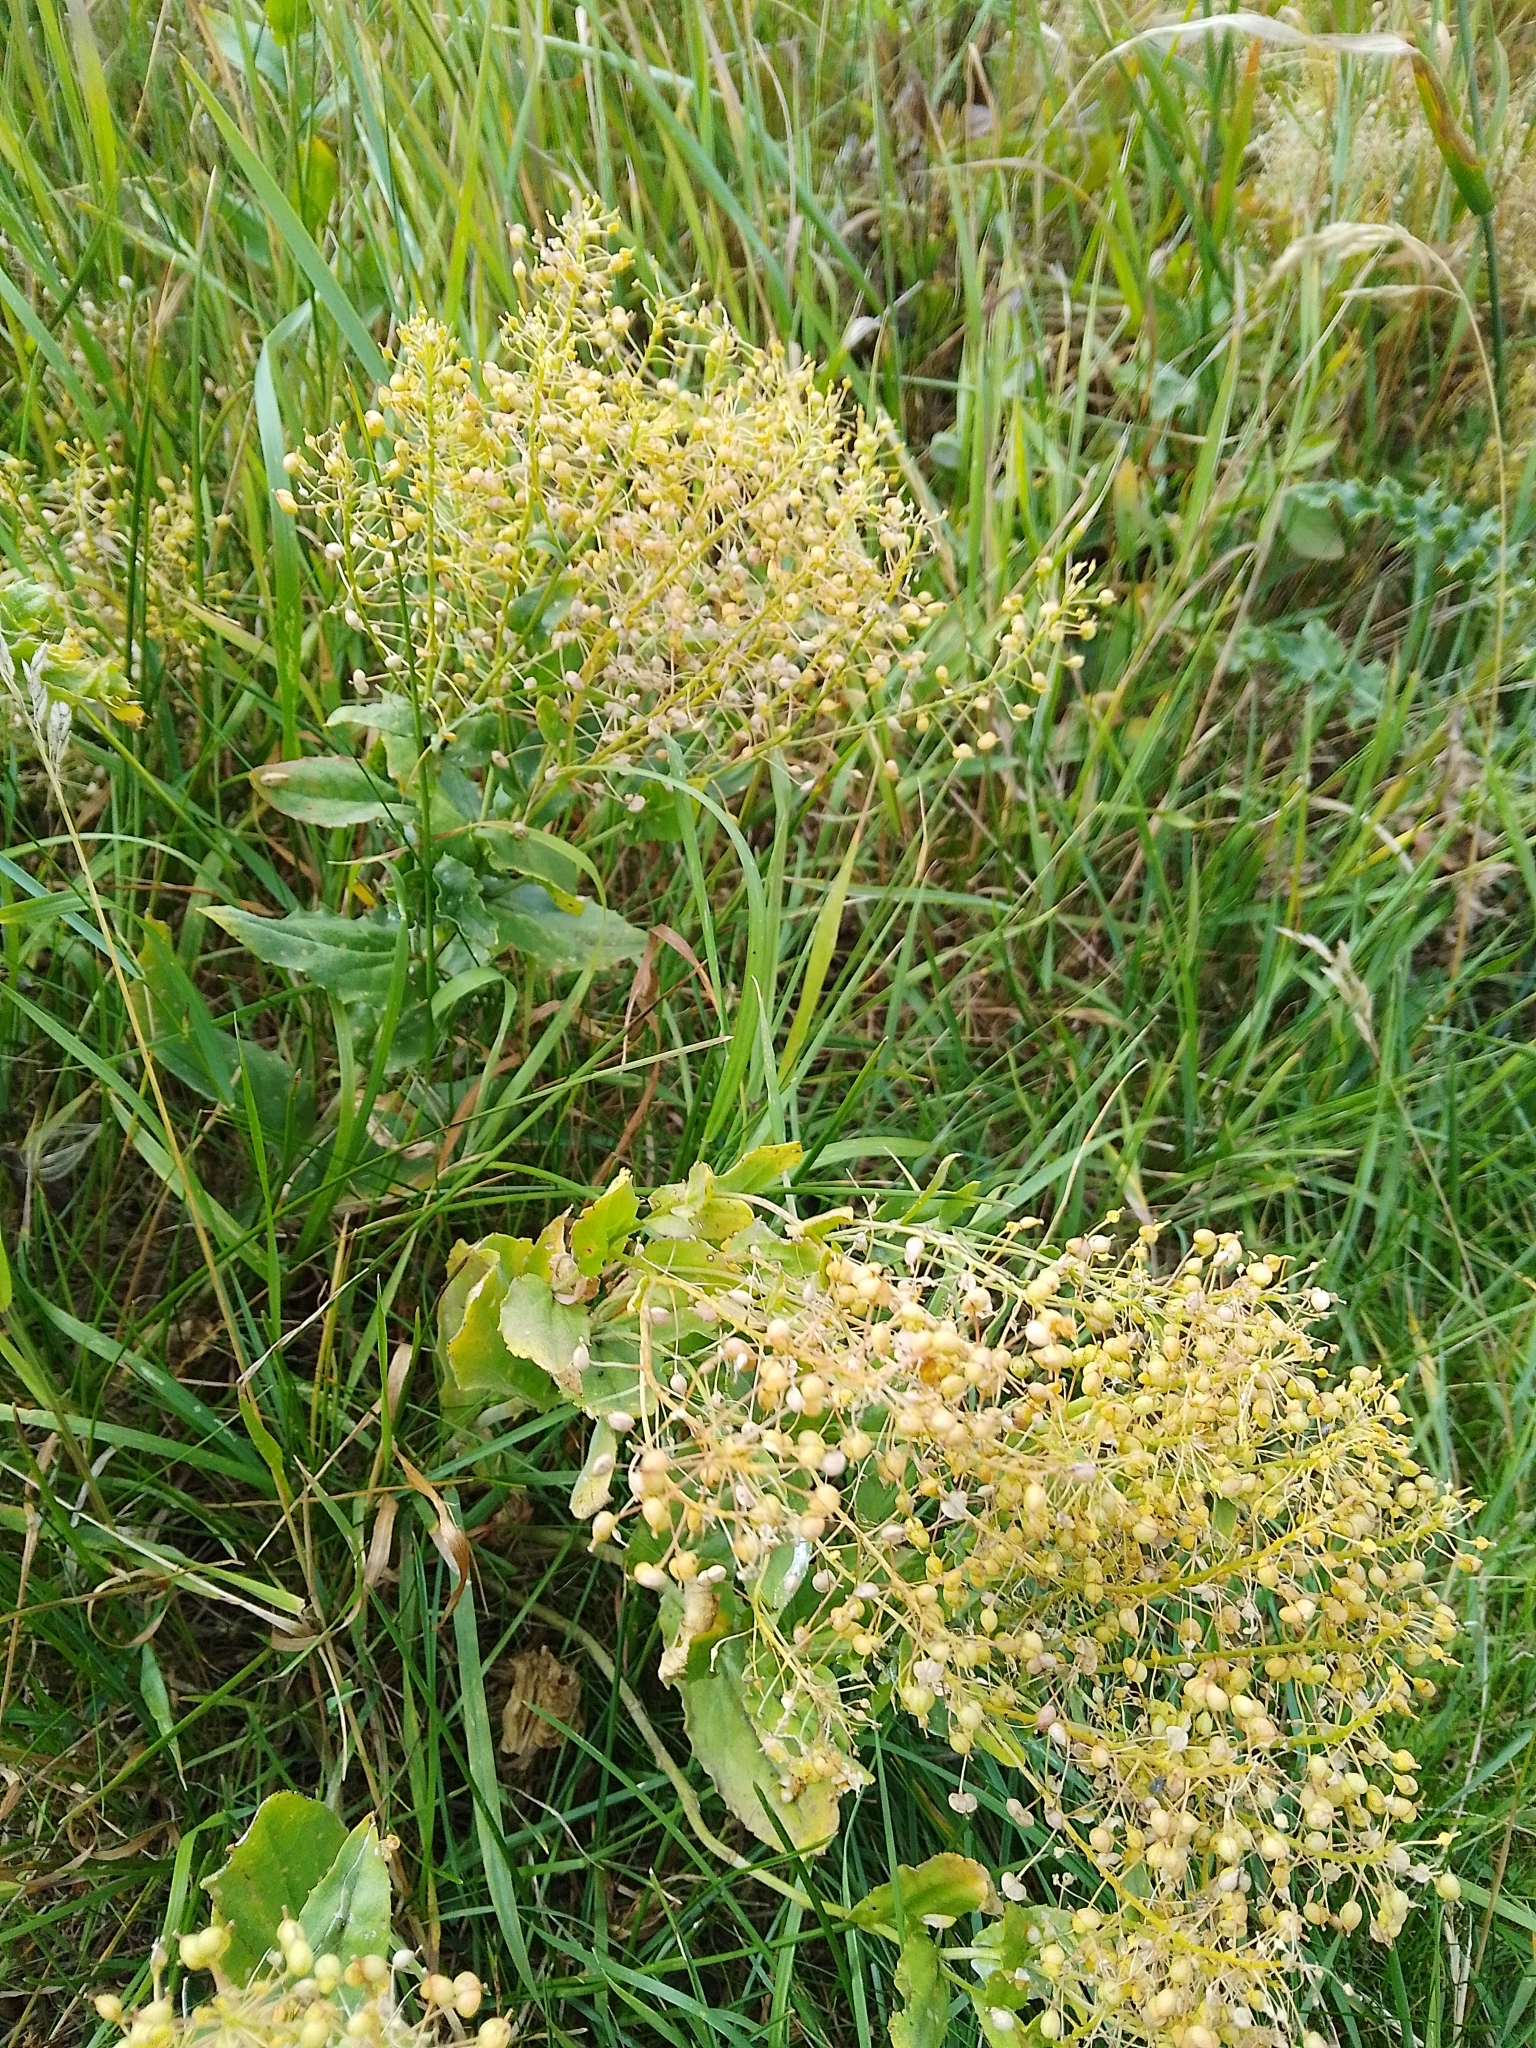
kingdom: Plantae
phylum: Tracheophyta
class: Magnoliopsida
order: Brassicales
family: Brassicaceae
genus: Lepidium
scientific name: Lepidium draba
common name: Hoary cress
